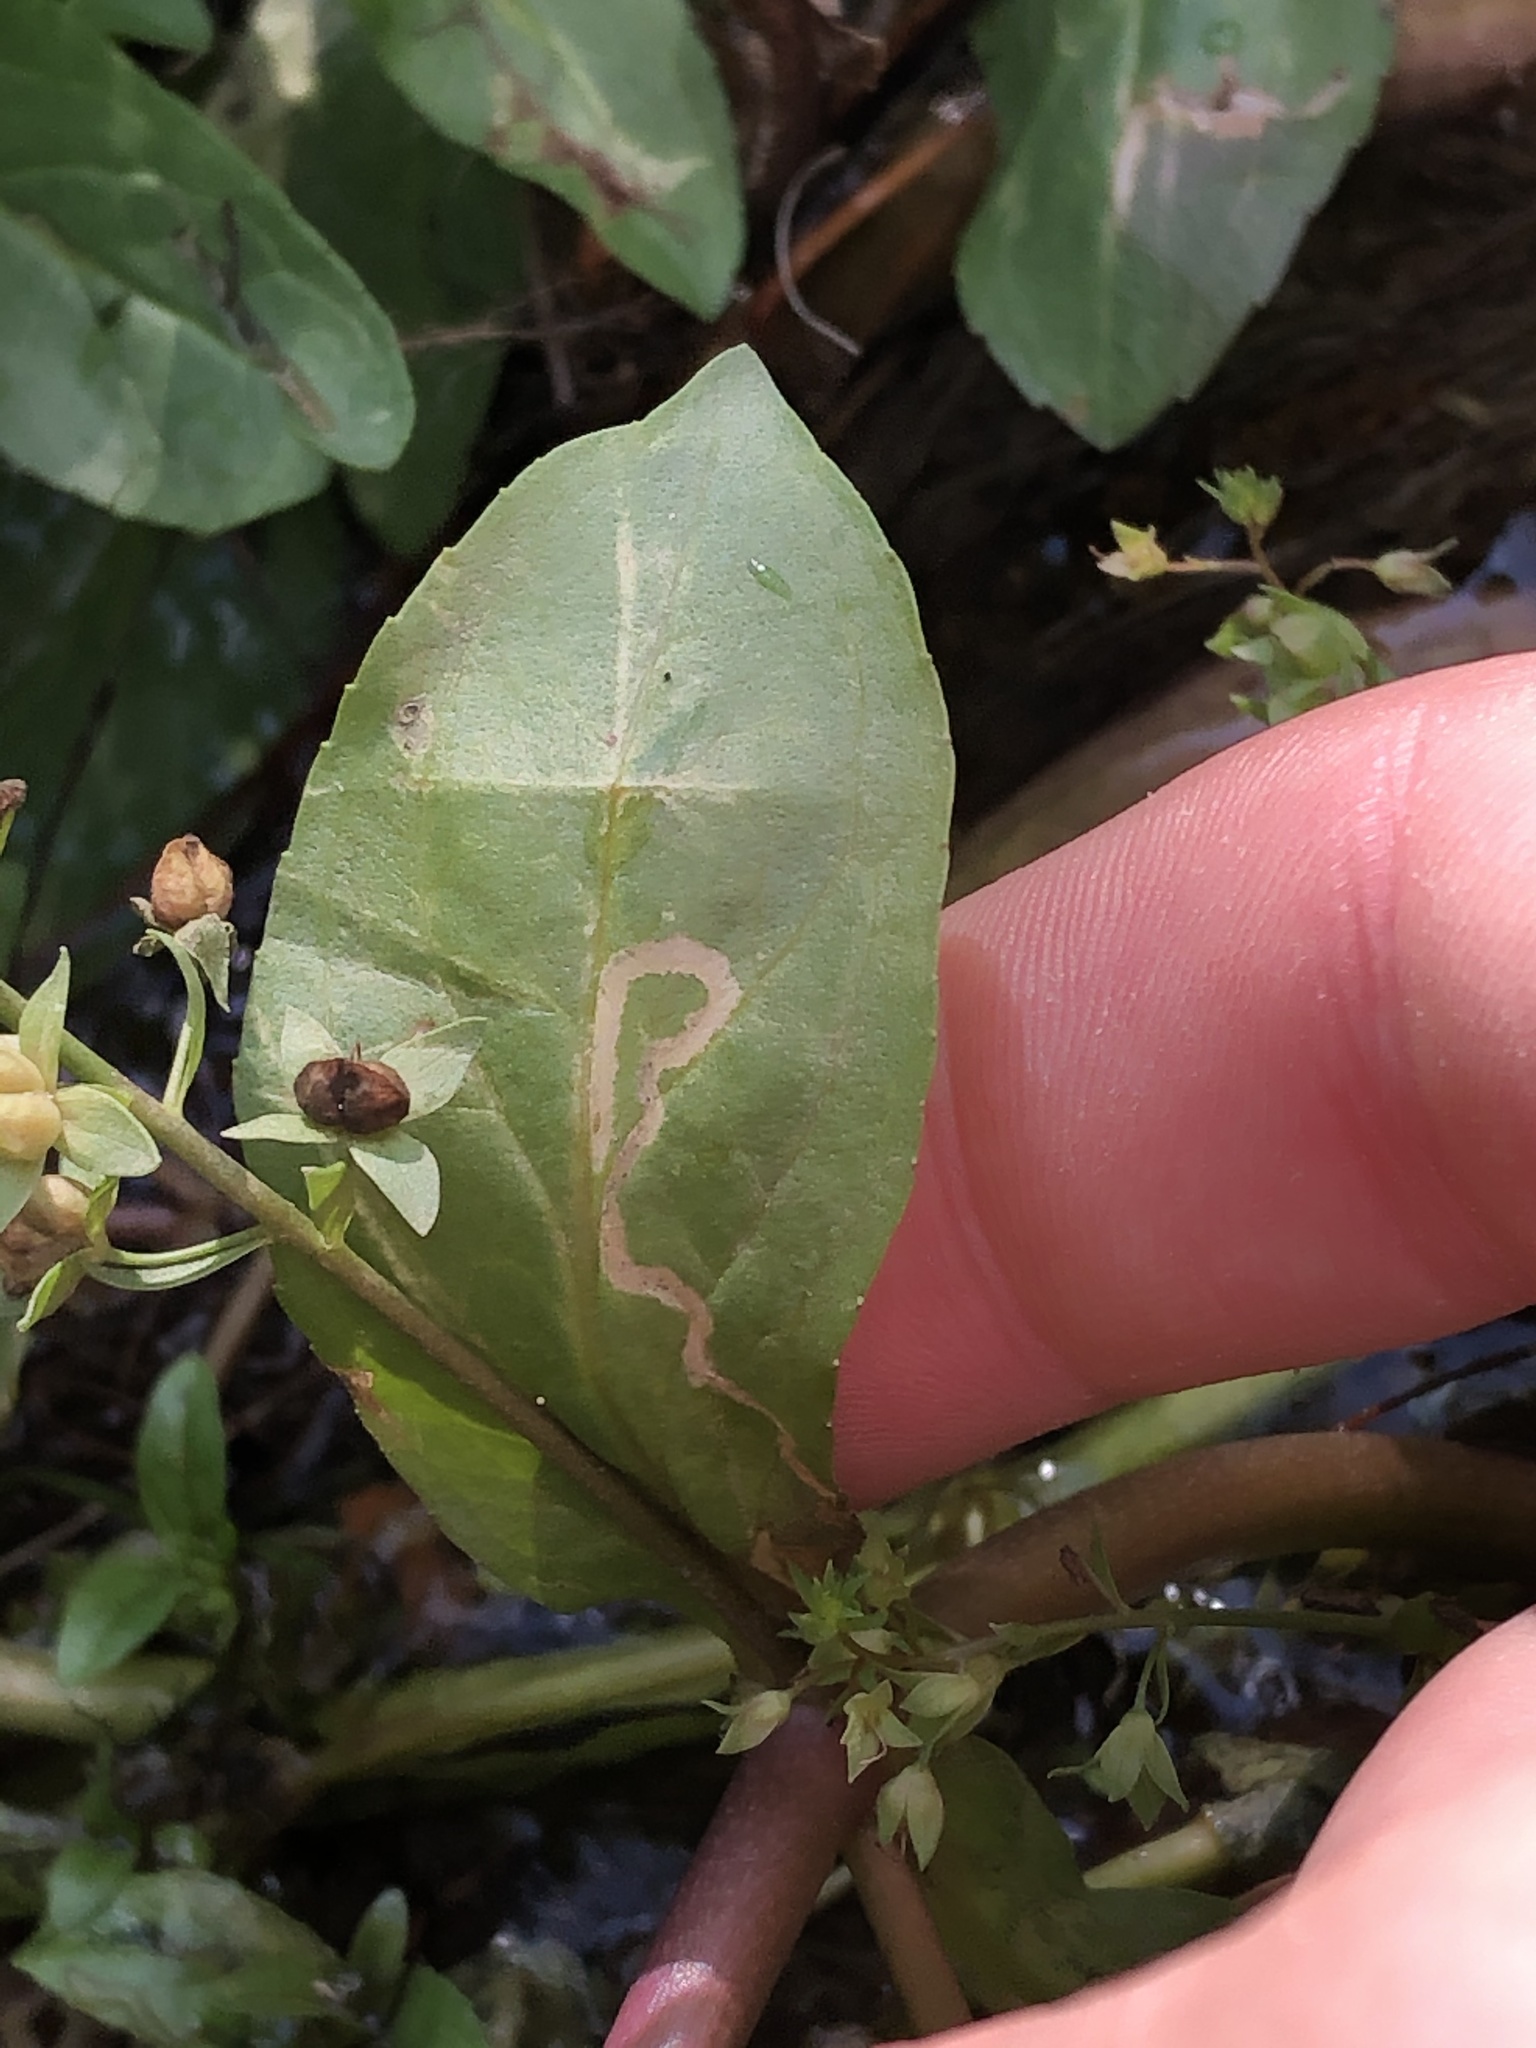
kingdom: Animalia
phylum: Arthropoda
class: Insecta
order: Diptera
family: Agromyzidae
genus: Phytomyza
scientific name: Phytomyza crassiseta
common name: Leaf-miner fly
